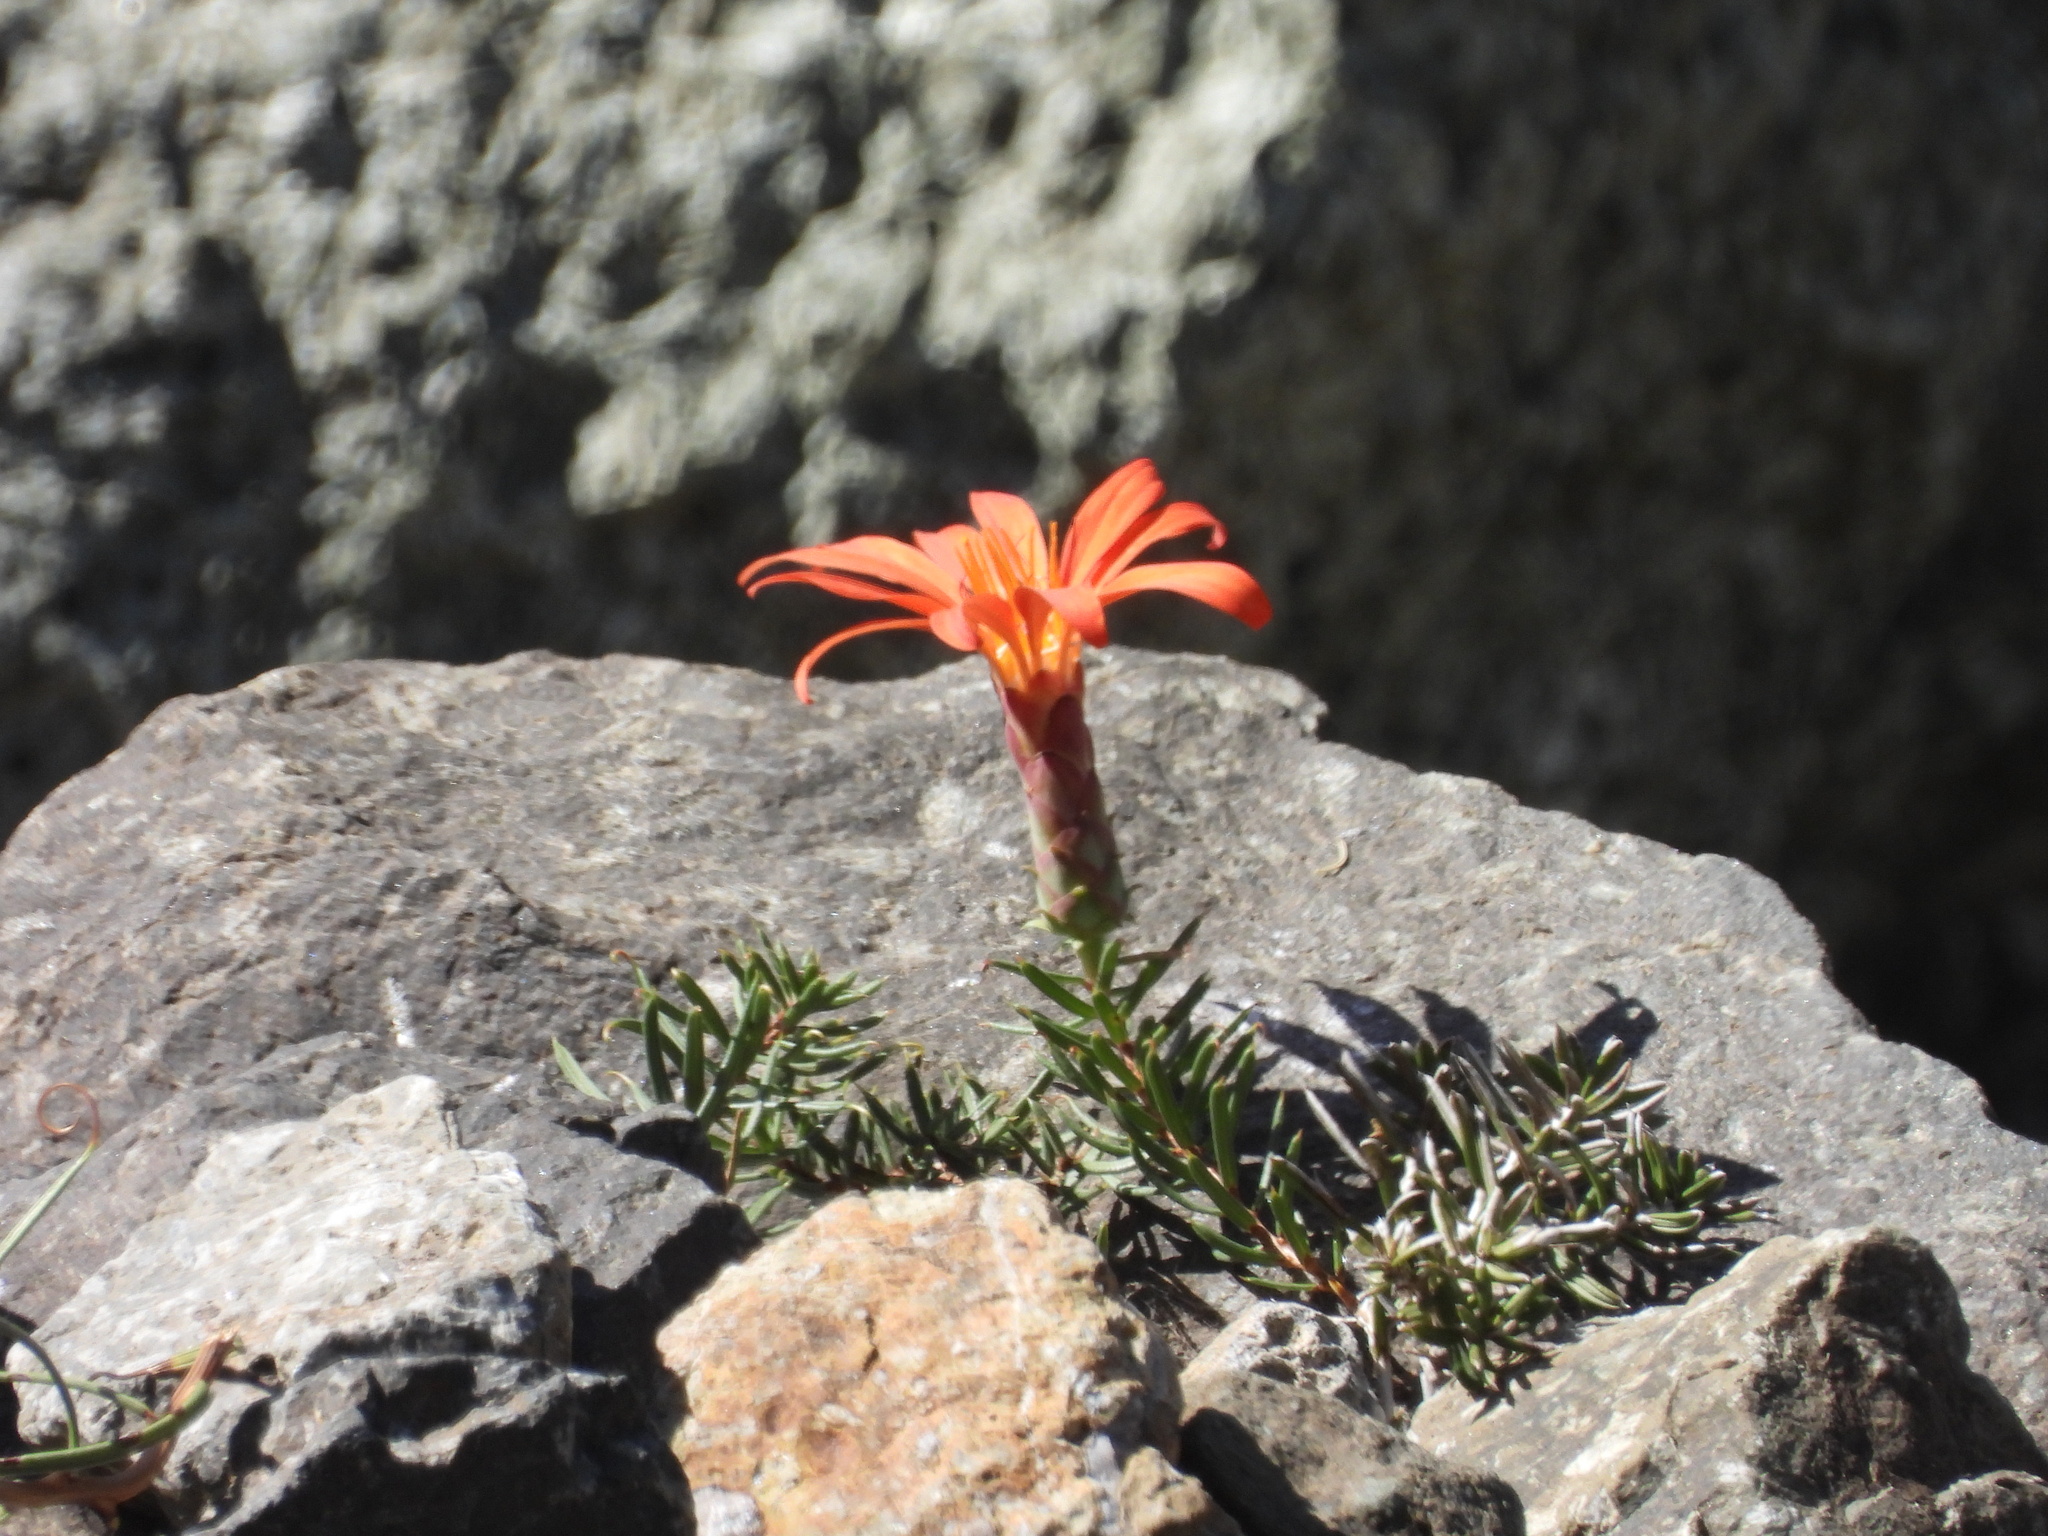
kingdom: Plantae
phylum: Tracheophyta
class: Magnoliopsida
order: Asterales
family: Asteraceae
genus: Mutisia
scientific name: Mutisia subulata
